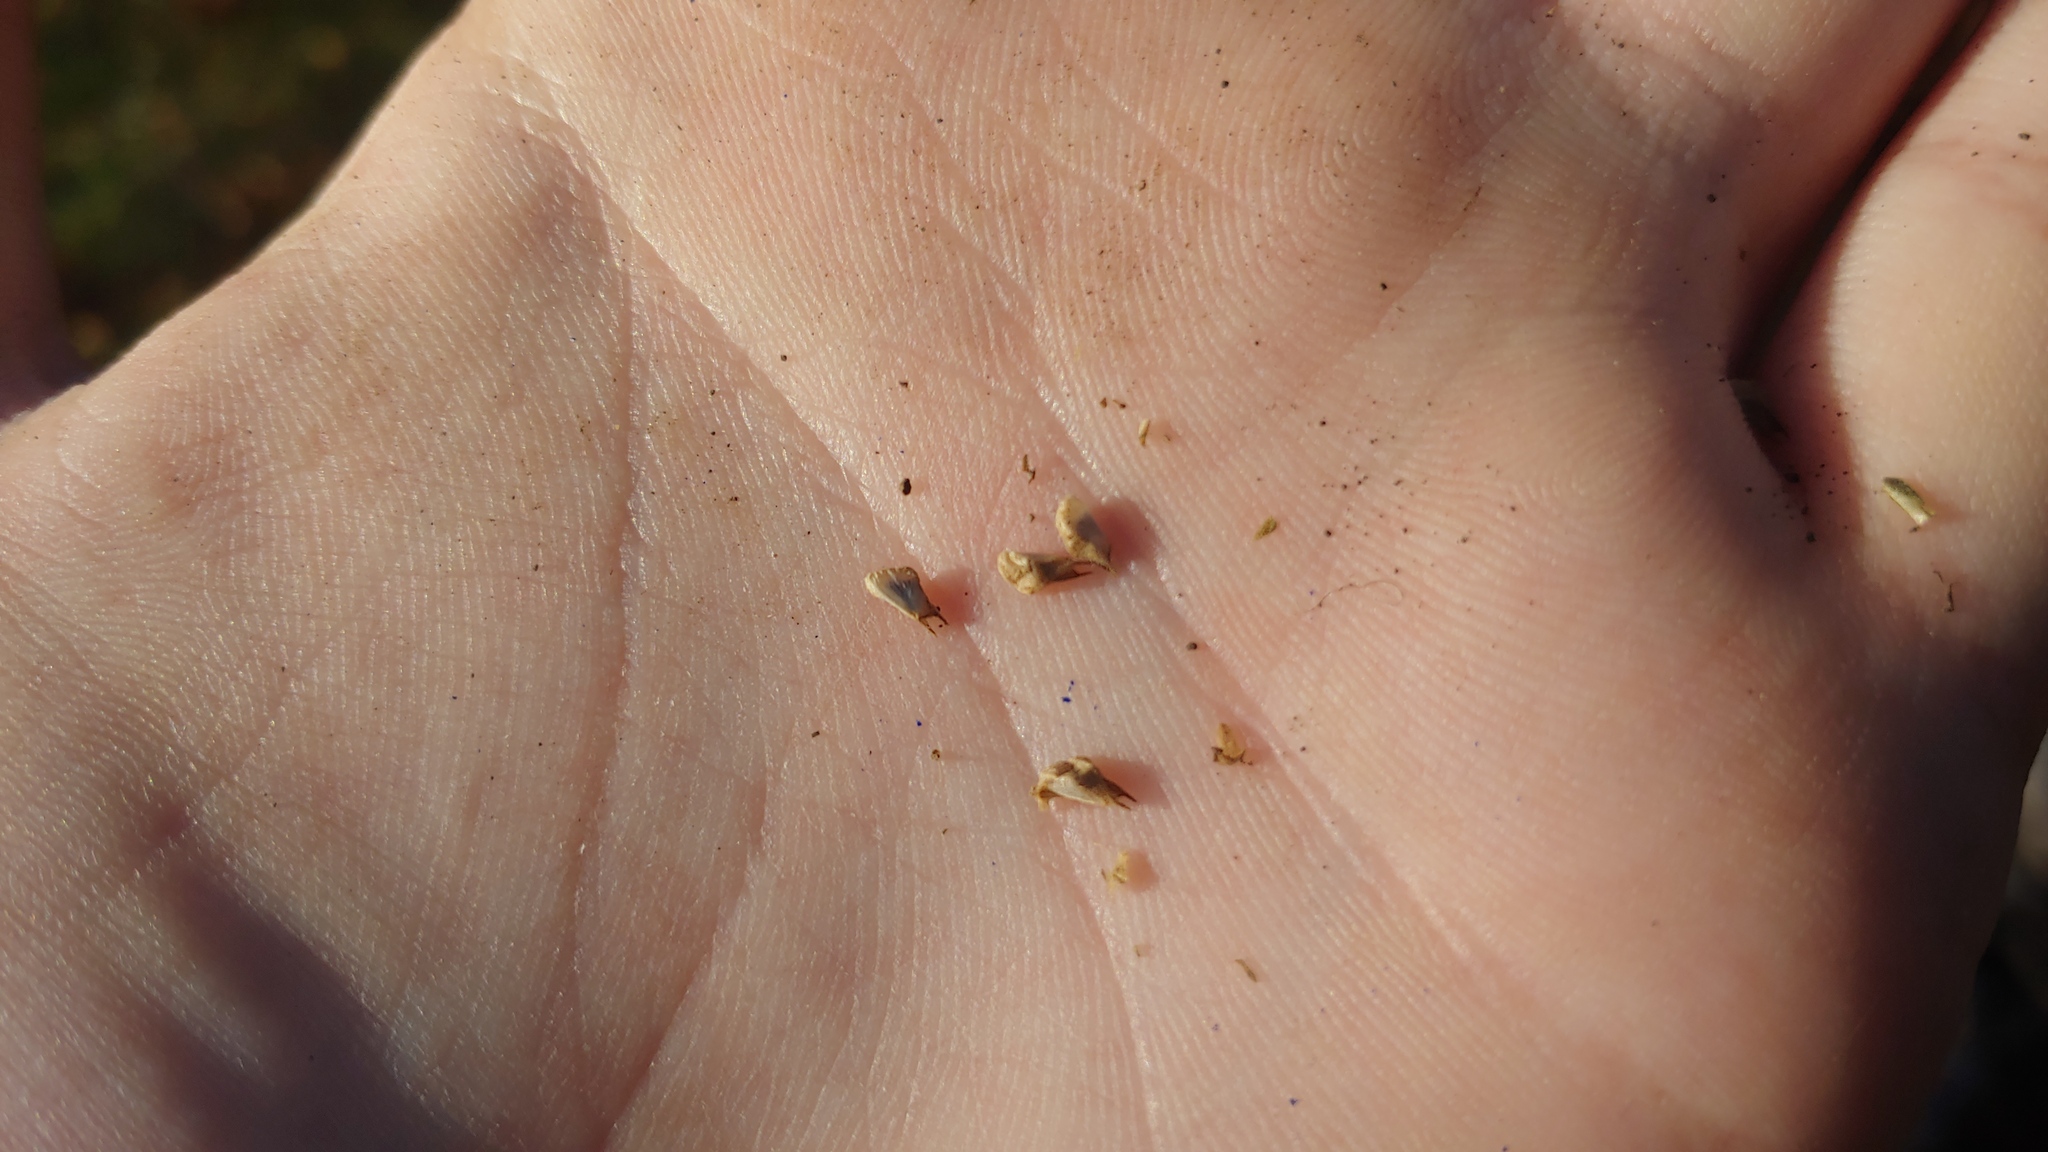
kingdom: Plantae
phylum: Tracheophyta
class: Magnoliopsida
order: Malvales
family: Malvaceae
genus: Sida
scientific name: Sida spinosa
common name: Prickly fanpetals
